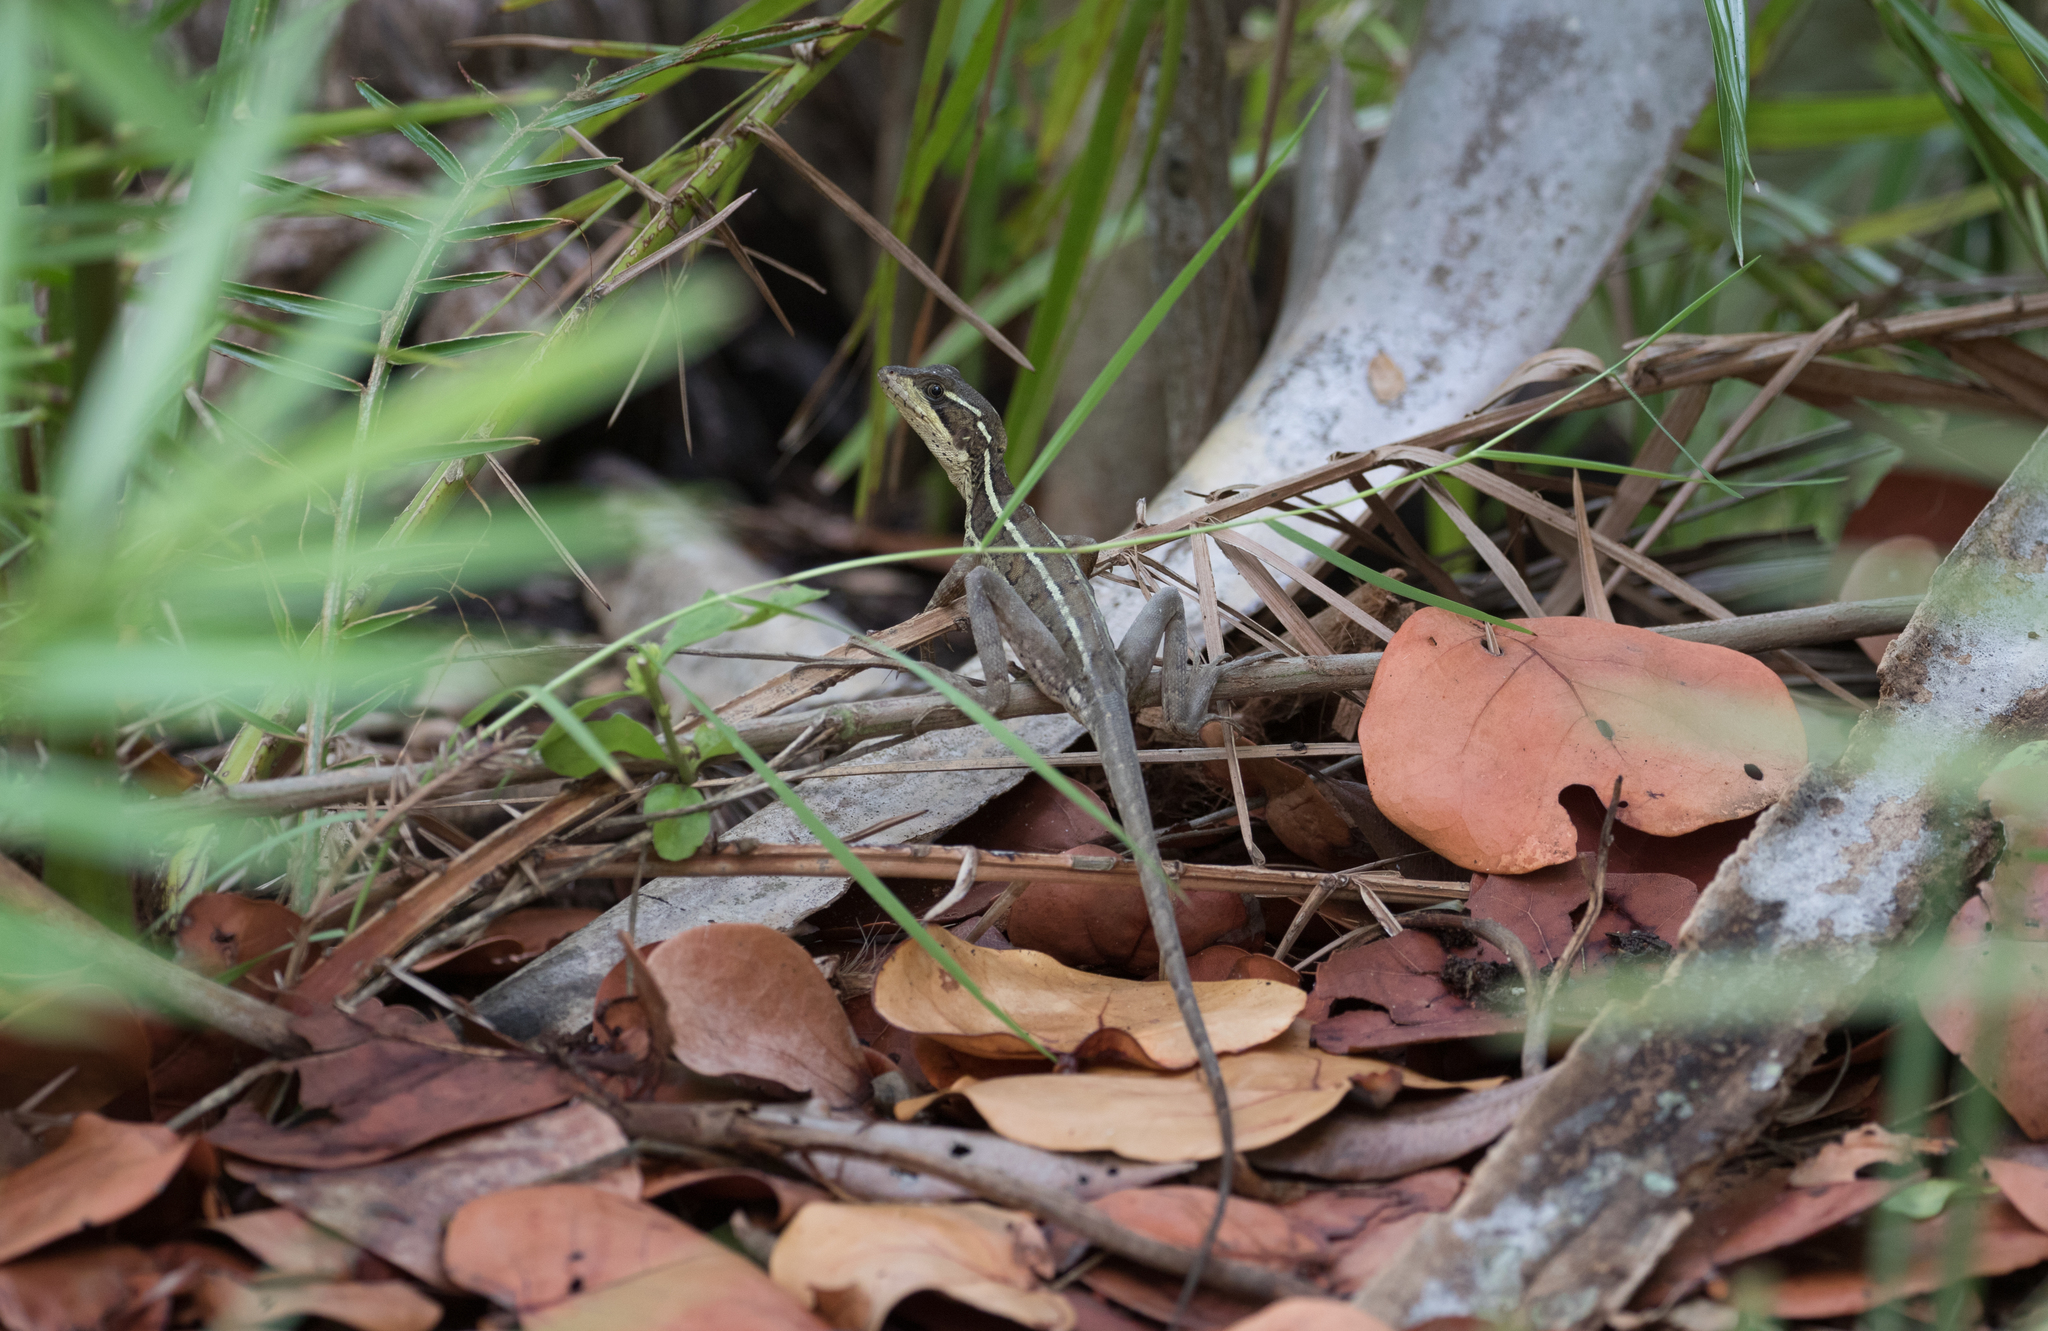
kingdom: Animalia
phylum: Chordata
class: Squamata
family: Corytophanidae
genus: Basiliscus
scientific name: Basiliscus vittatus
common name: Brown basilisk
